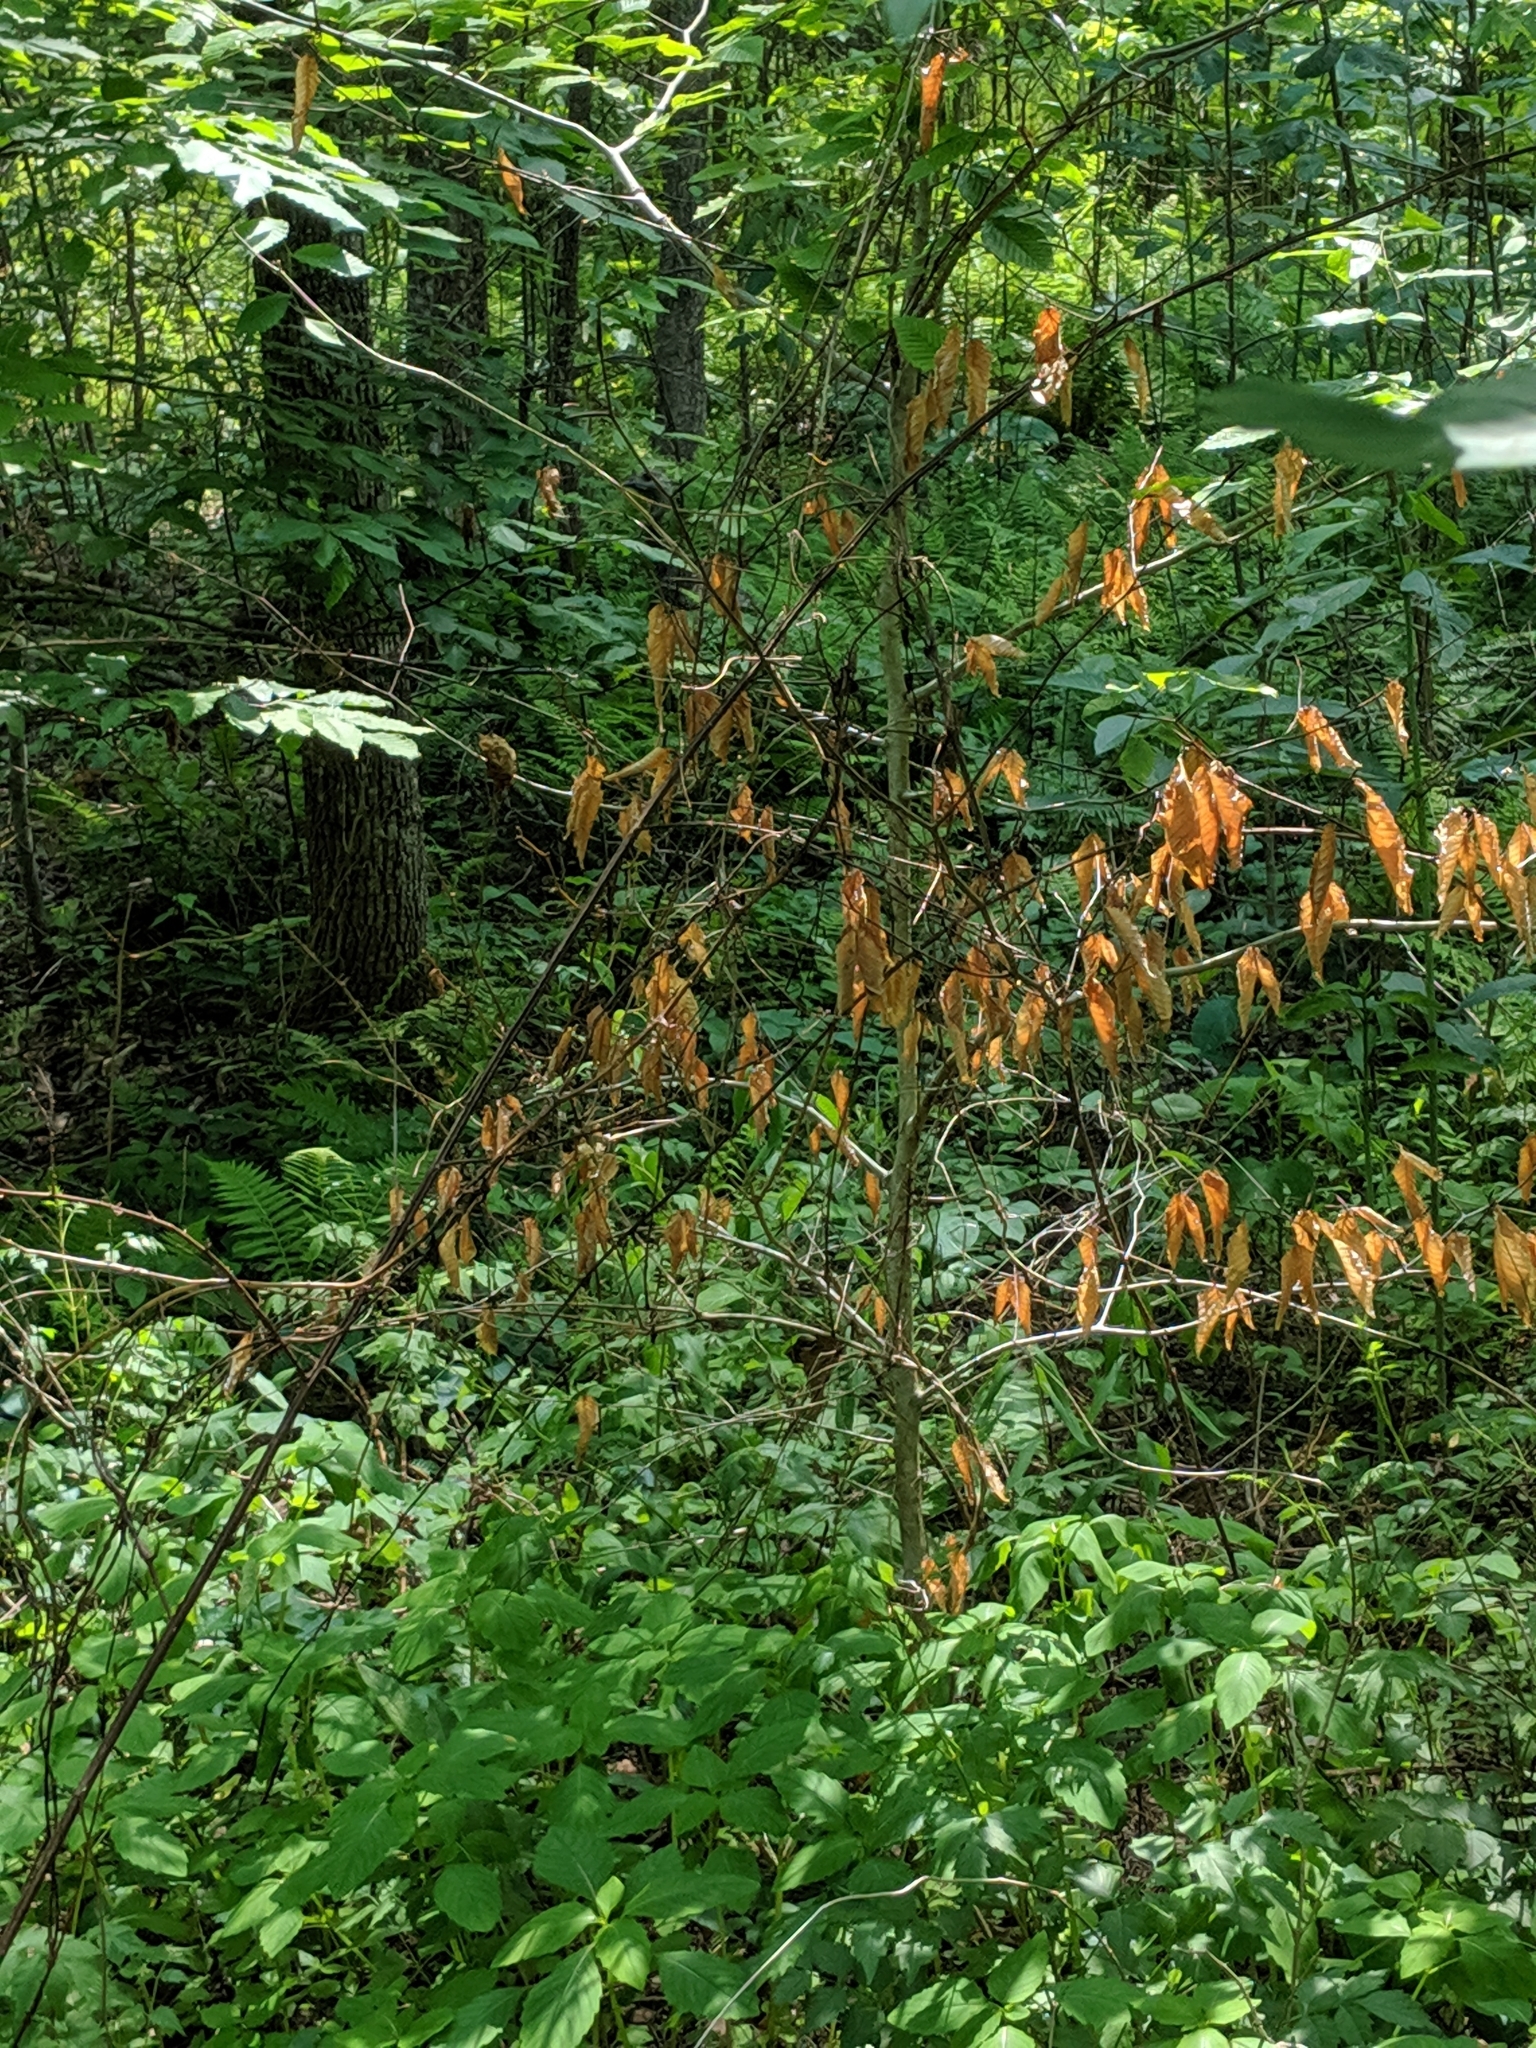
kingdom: Animalia
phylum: Chordata
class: Aves
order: Galliformes
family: Phasianidae
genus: Meleagris
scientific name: Meleagris gallopavo
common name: Wild turkey
